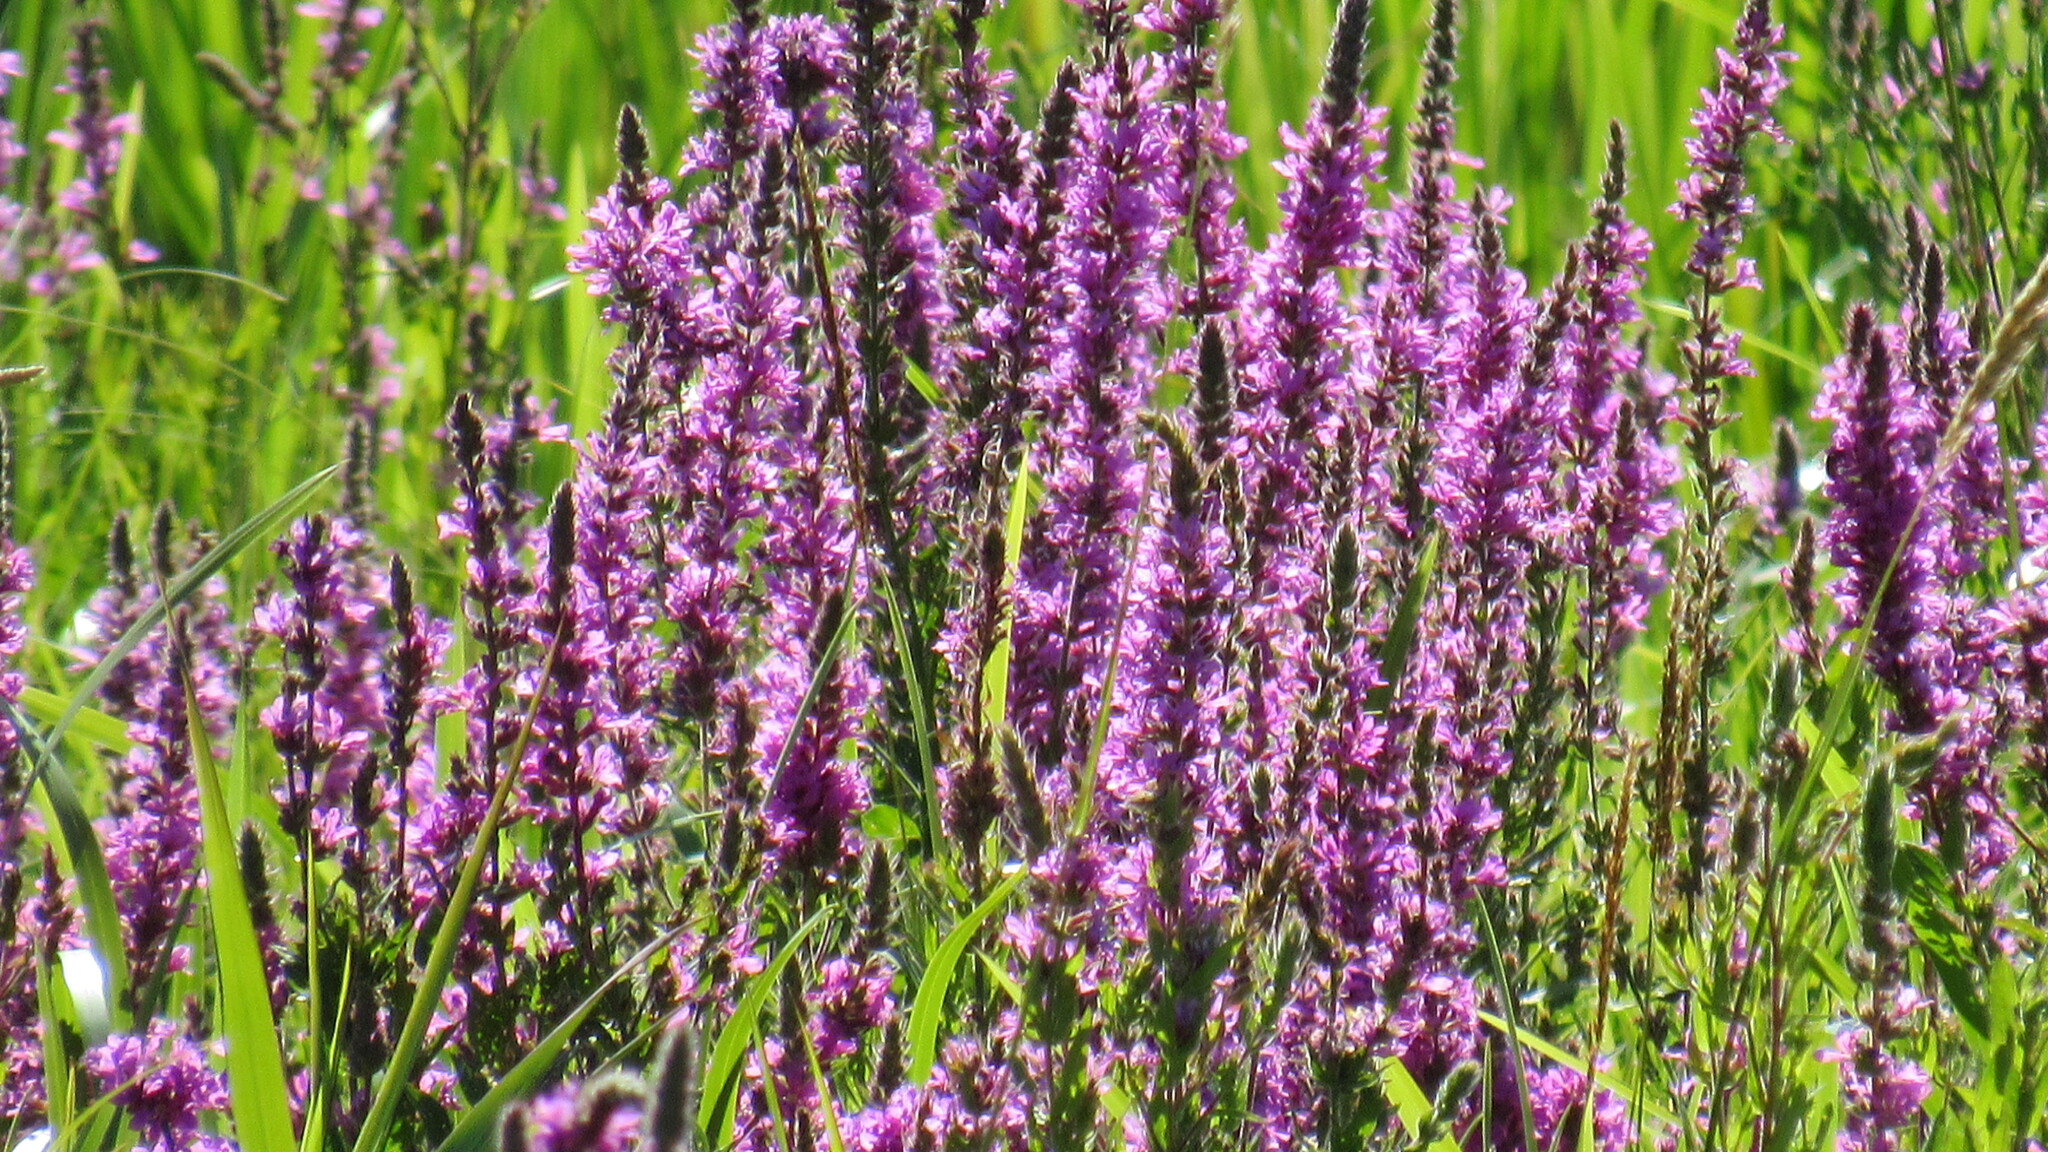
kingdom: Plantae
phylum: Tracheophyta
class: Magnoliopsida
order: Myrtales
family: Lythraceae
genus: Lythrum
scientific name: Lythrum salicaria
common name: Purple loosestrife
